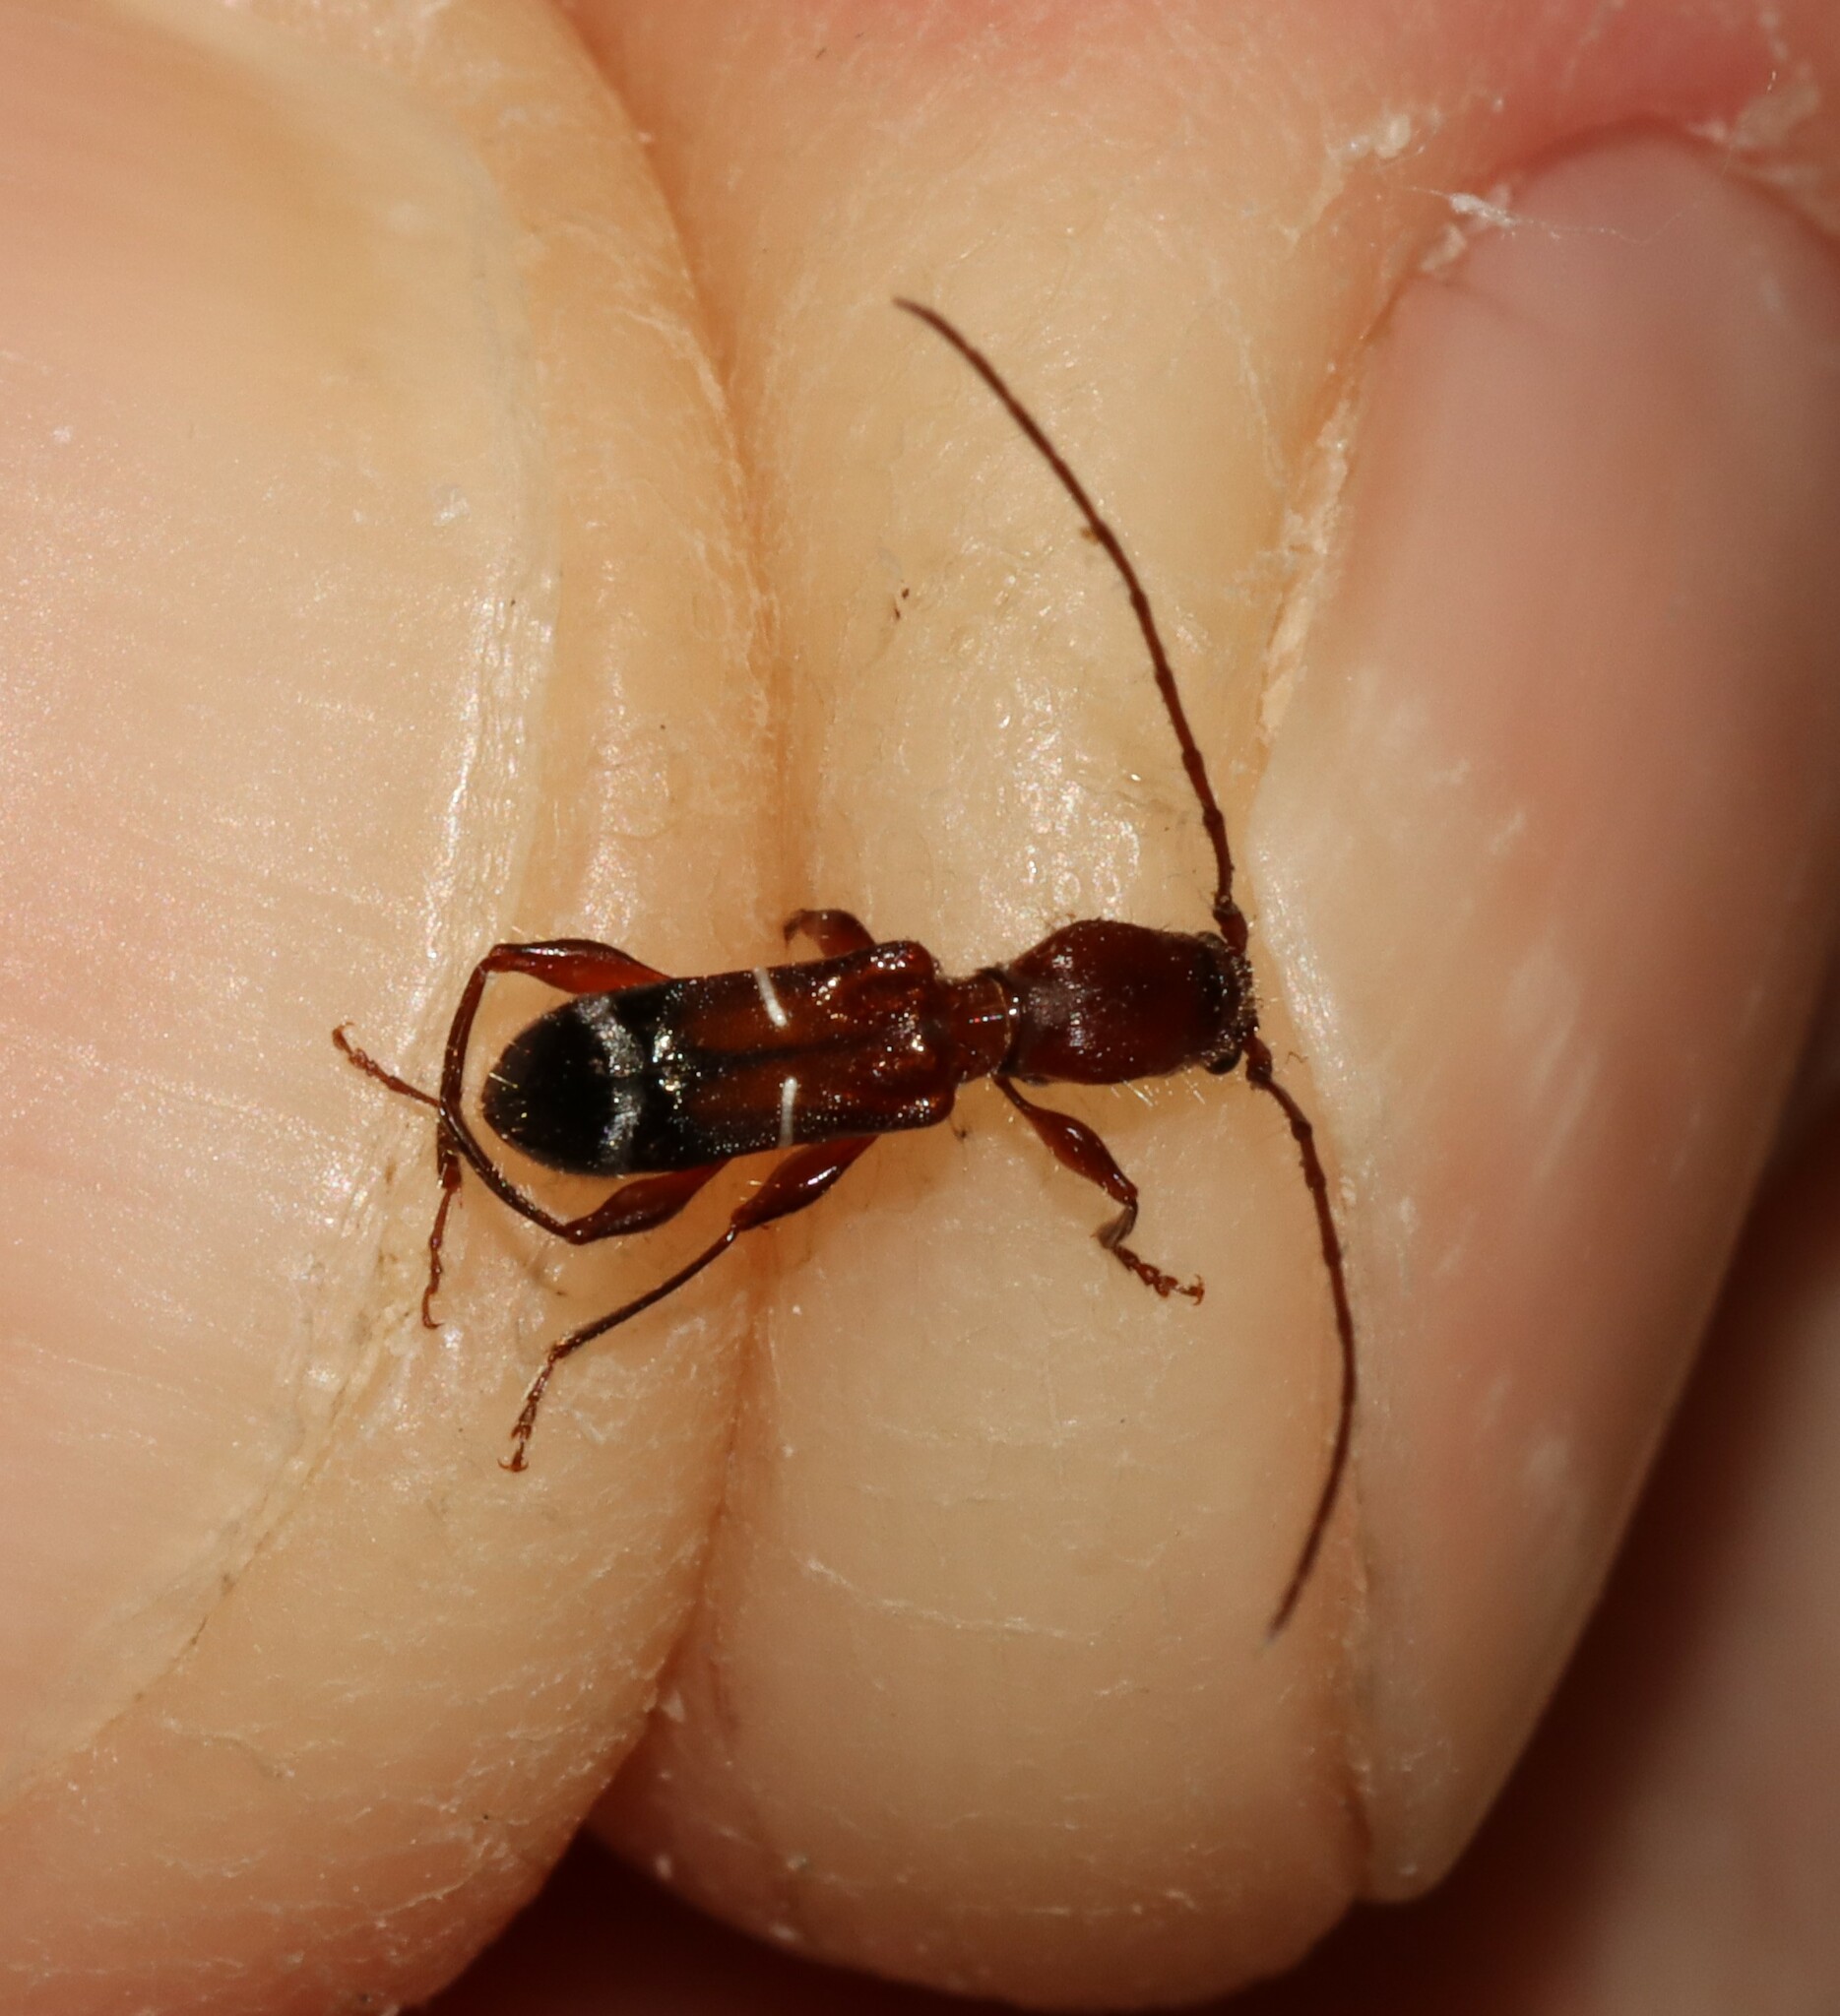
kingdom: Animalia
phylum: Arthropoda
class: Insecta
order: Coleoptera
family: Cerambycidae
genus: Euderces
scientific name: Euderces pini
